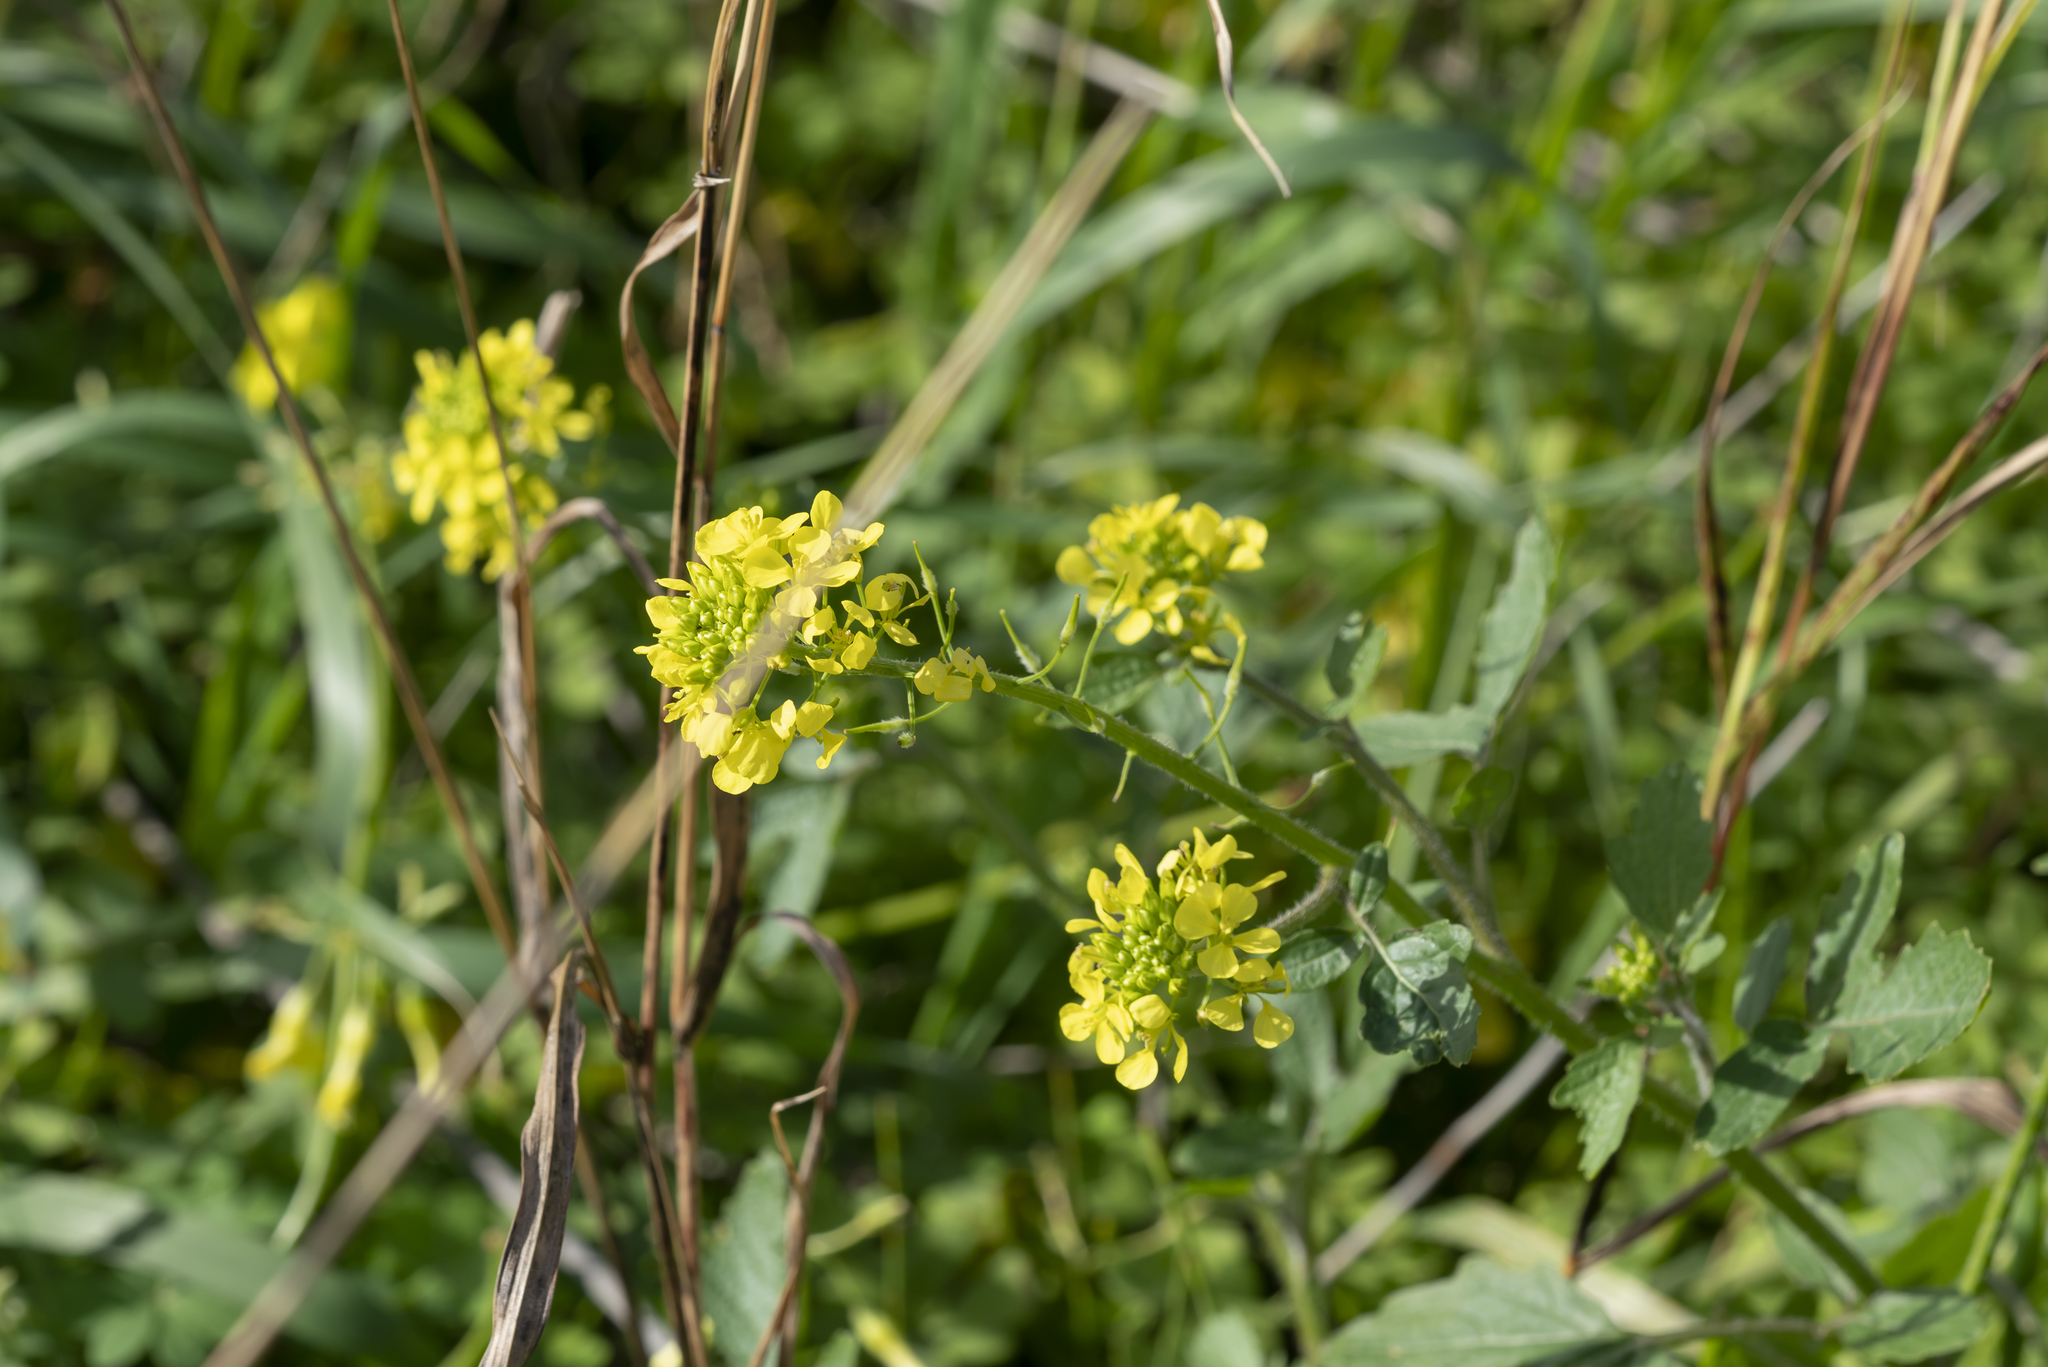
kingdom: Plantae
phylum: Tracheophyta
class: Magnoliopsida
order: Brassicales
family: Brassicaceae
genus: Sinapis
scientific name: Sinapis alba
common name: White mustard
